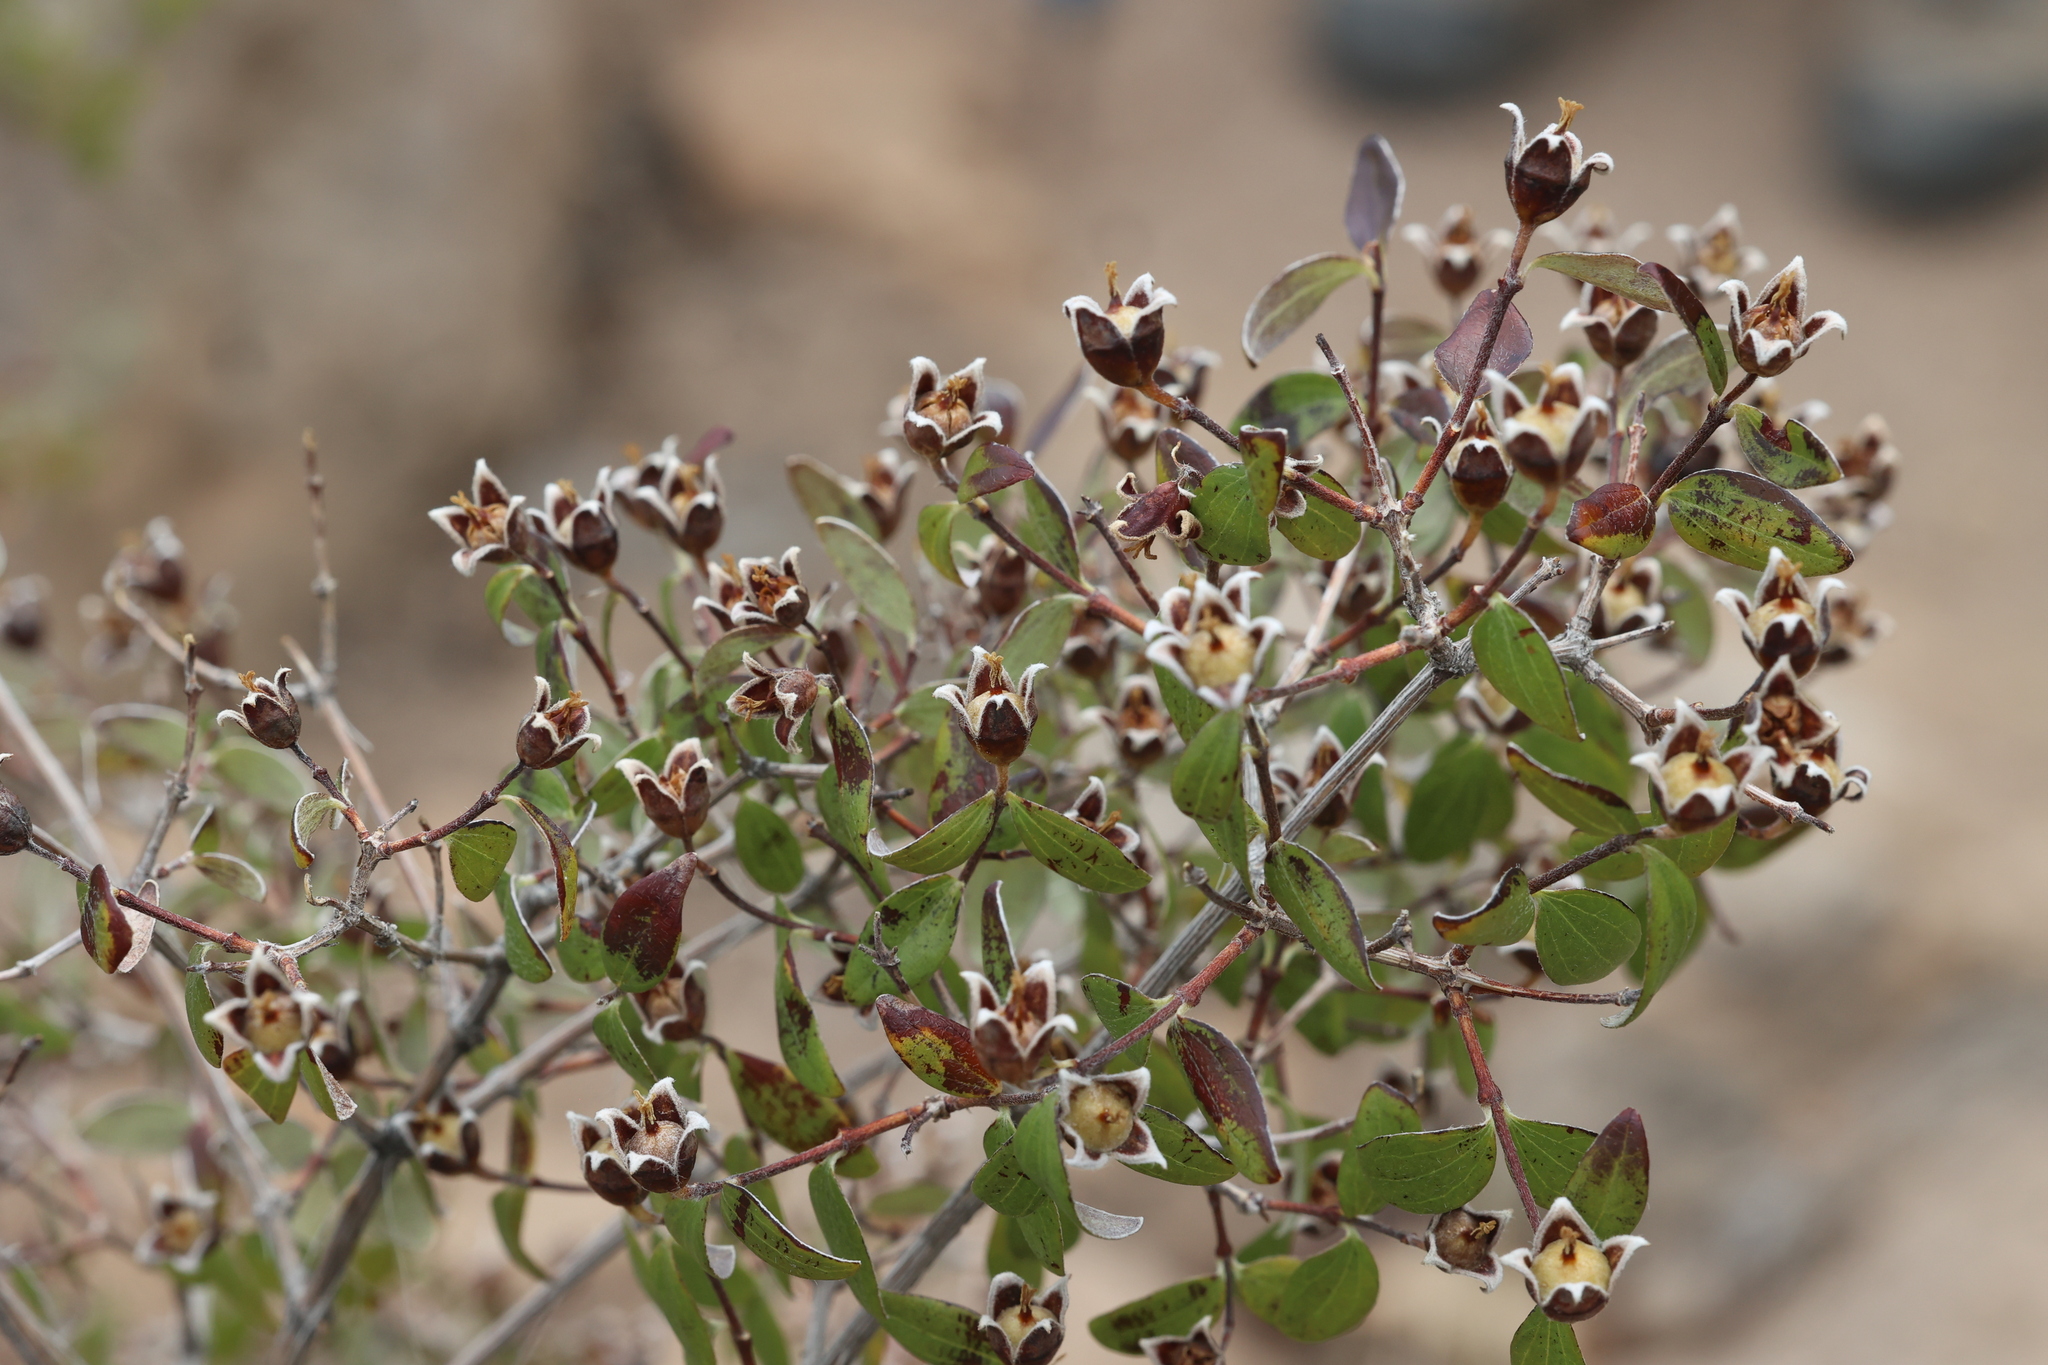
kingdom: Plantae
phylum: Tracheophyta
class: Magnoliopsida
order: Cornales
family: Hydrangeaceae
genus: Philadelphus
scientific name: Philadelphus microphyllus
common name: Desert mock orange
